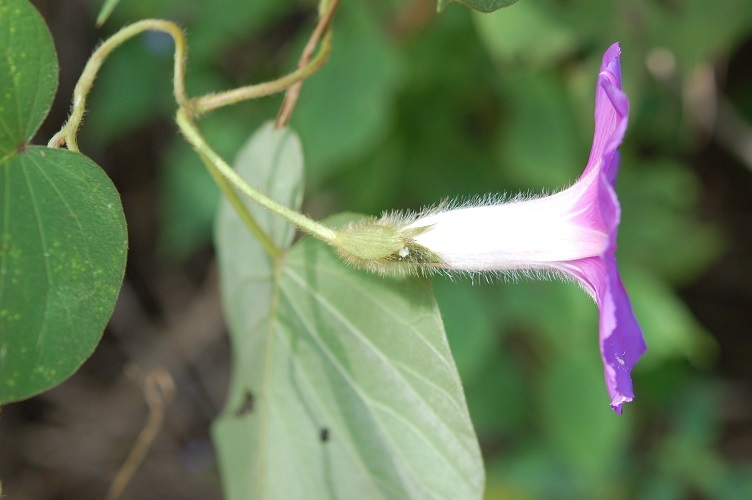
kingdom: Plantae
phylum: Tracheophyta
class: Magnoliopsida
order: Solanales
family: Convolvulaceae
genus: Ipomoea
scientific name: Ipomoea villifera
